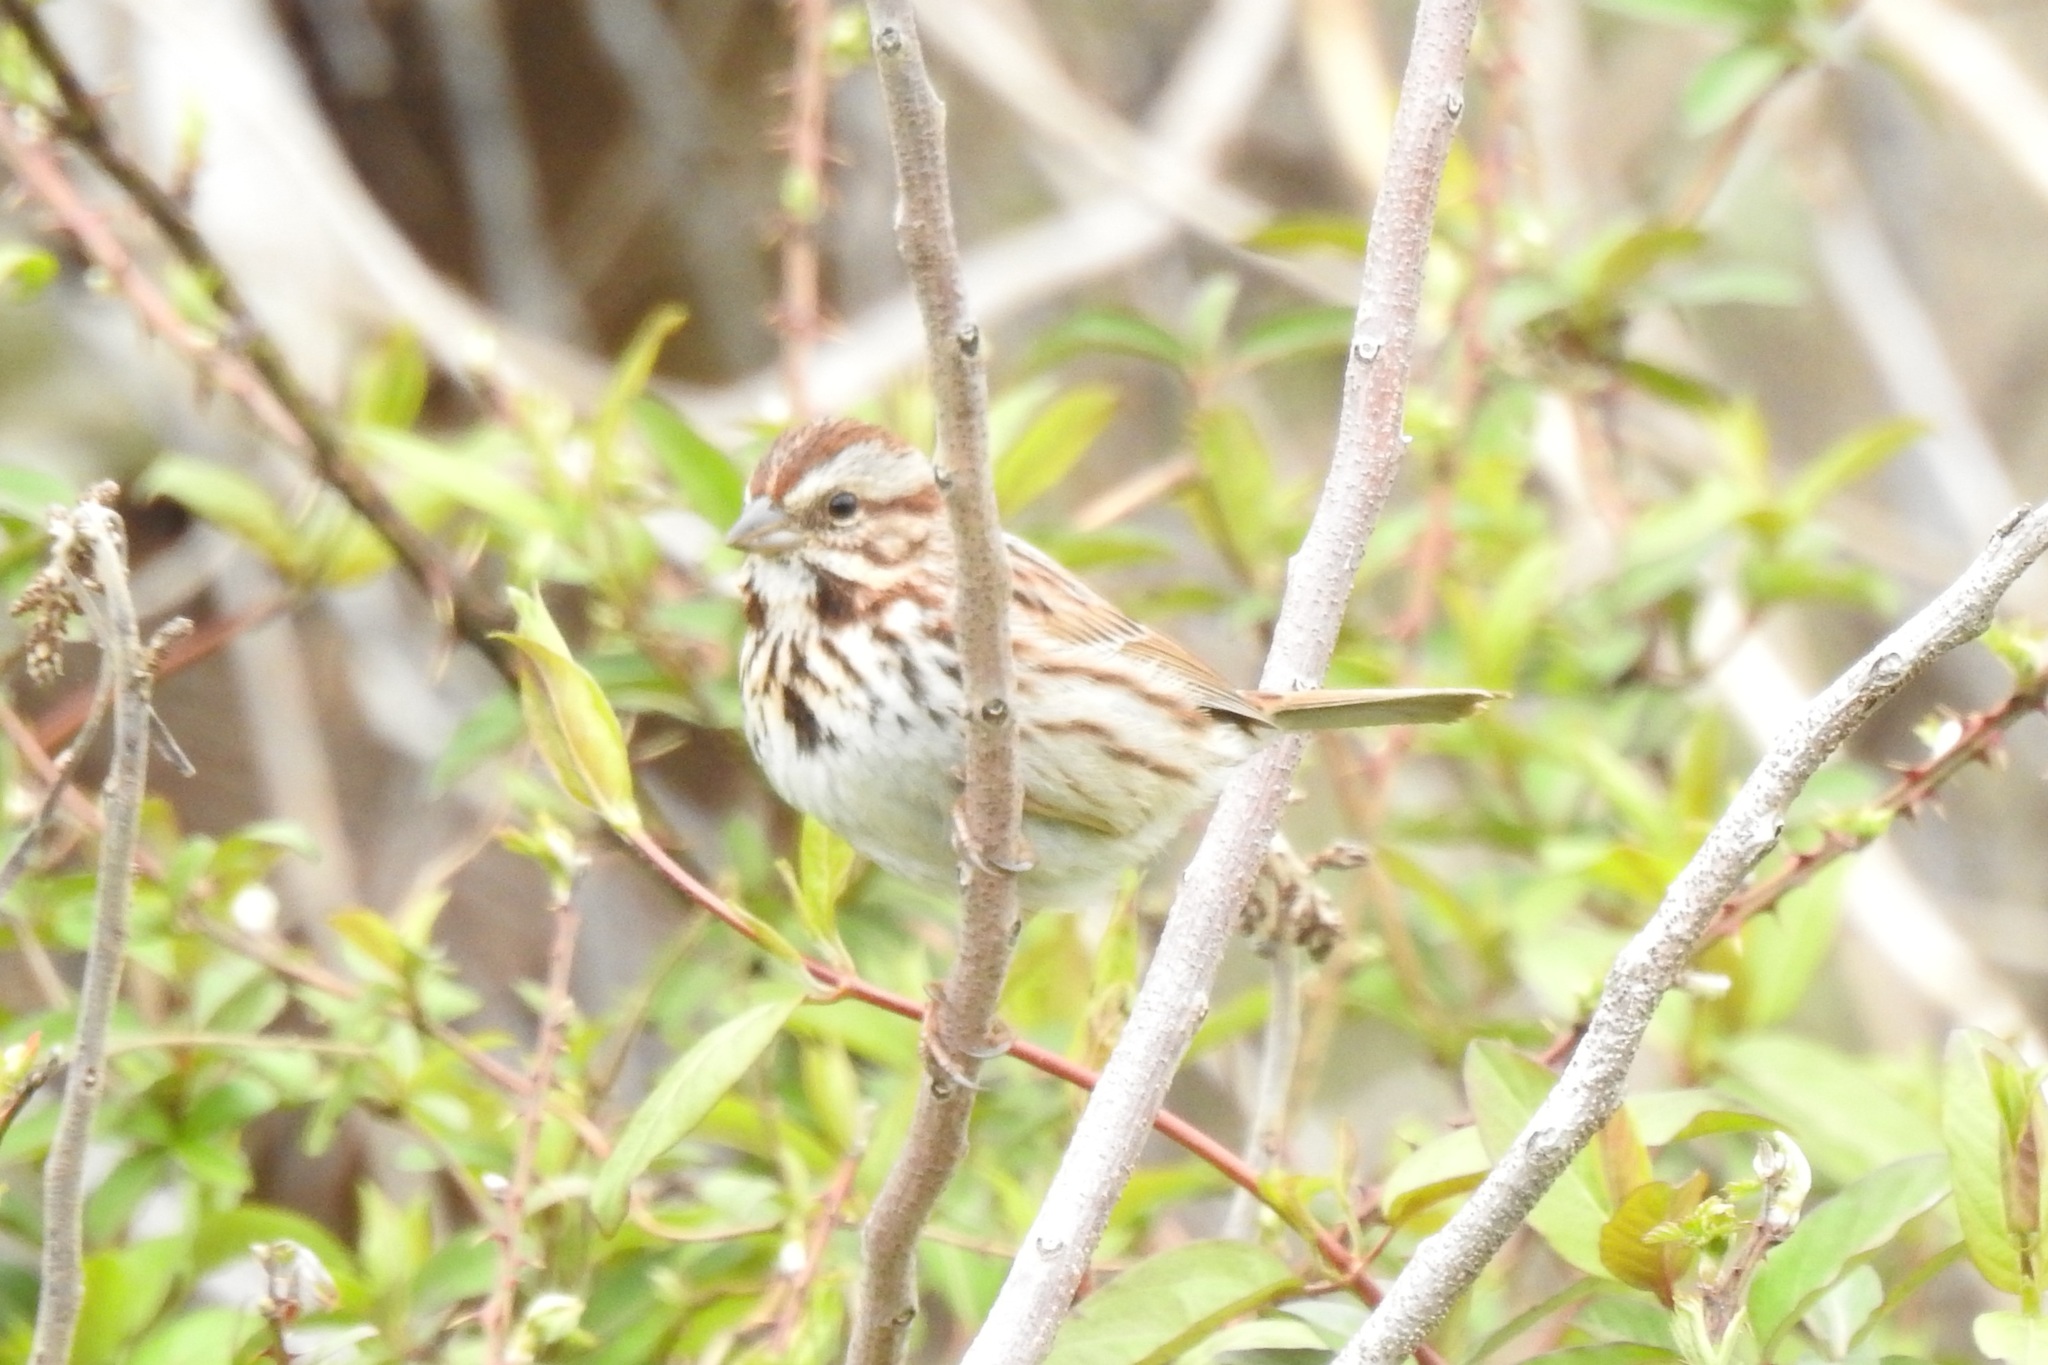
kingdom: Animalia
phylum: Chordata
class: Aves
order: Passeriformes
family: Passerellidae
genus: Melospiza
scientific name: Melospiza melodia
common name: Song sparrow
